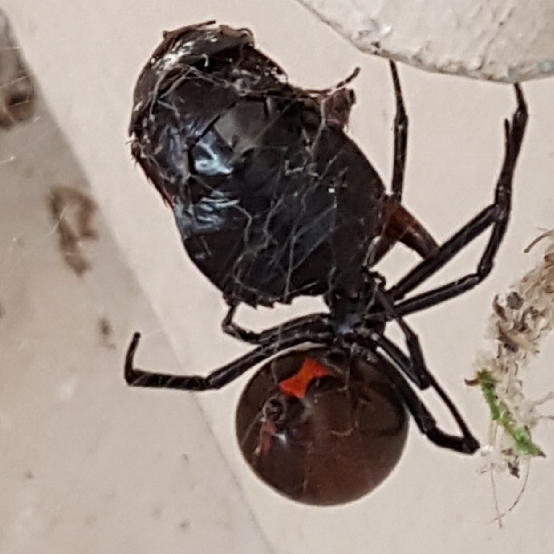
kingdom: Animalia
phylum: Arthropoda
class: Arachnida
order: Araneae
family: Theridiidae
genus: Latrodectus
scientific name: Latrodectus hesperus
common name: Western black widow
